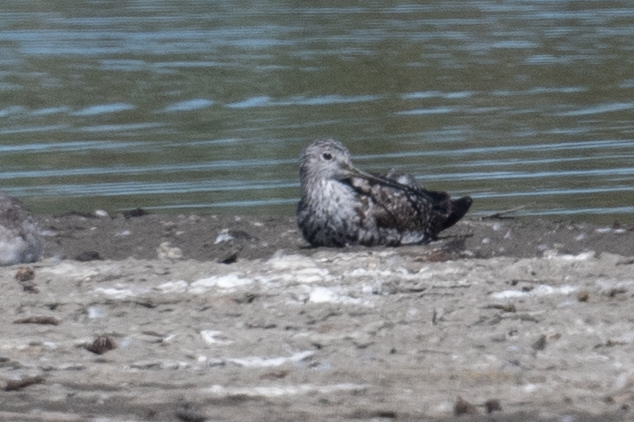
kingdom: Animalia
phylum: Chordata
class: Aves
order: Charadriiformes
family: Scolopacidae
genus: Tringa
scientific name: Tringa melanoleuca
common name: Greater yellowlegs
